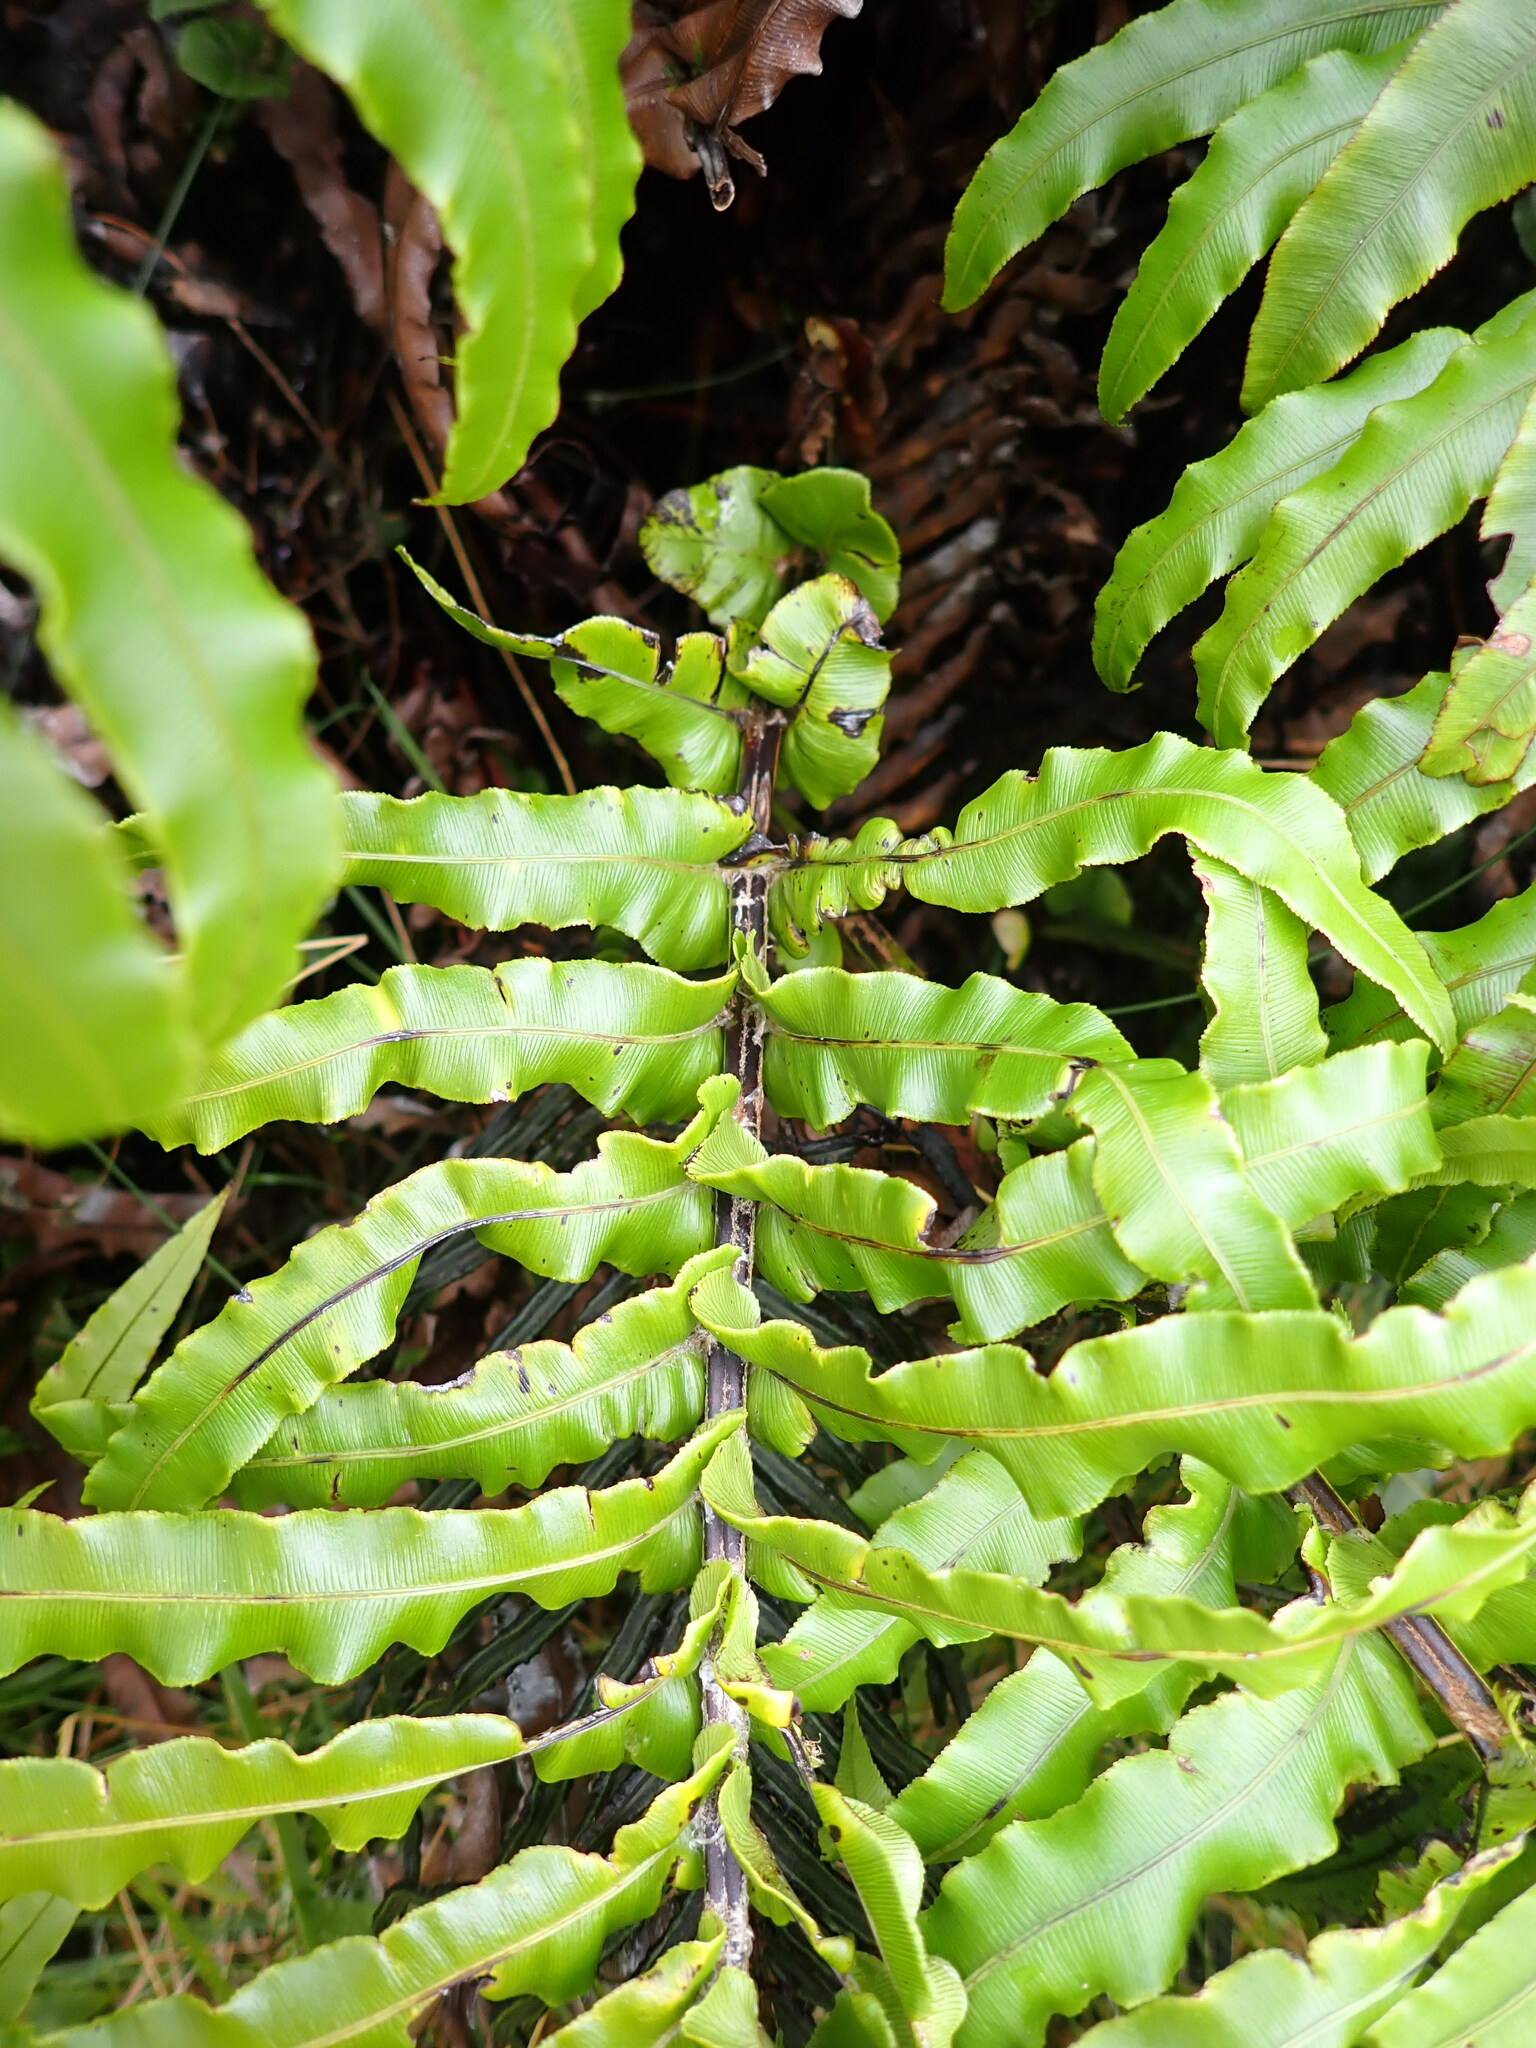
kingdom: Plantae
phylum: Tracheophyta
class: Polypodiopsida
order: Polypodiales
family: Blechnaceae
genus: Parablechnum
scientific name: Parablechnum novae-zelandiae
